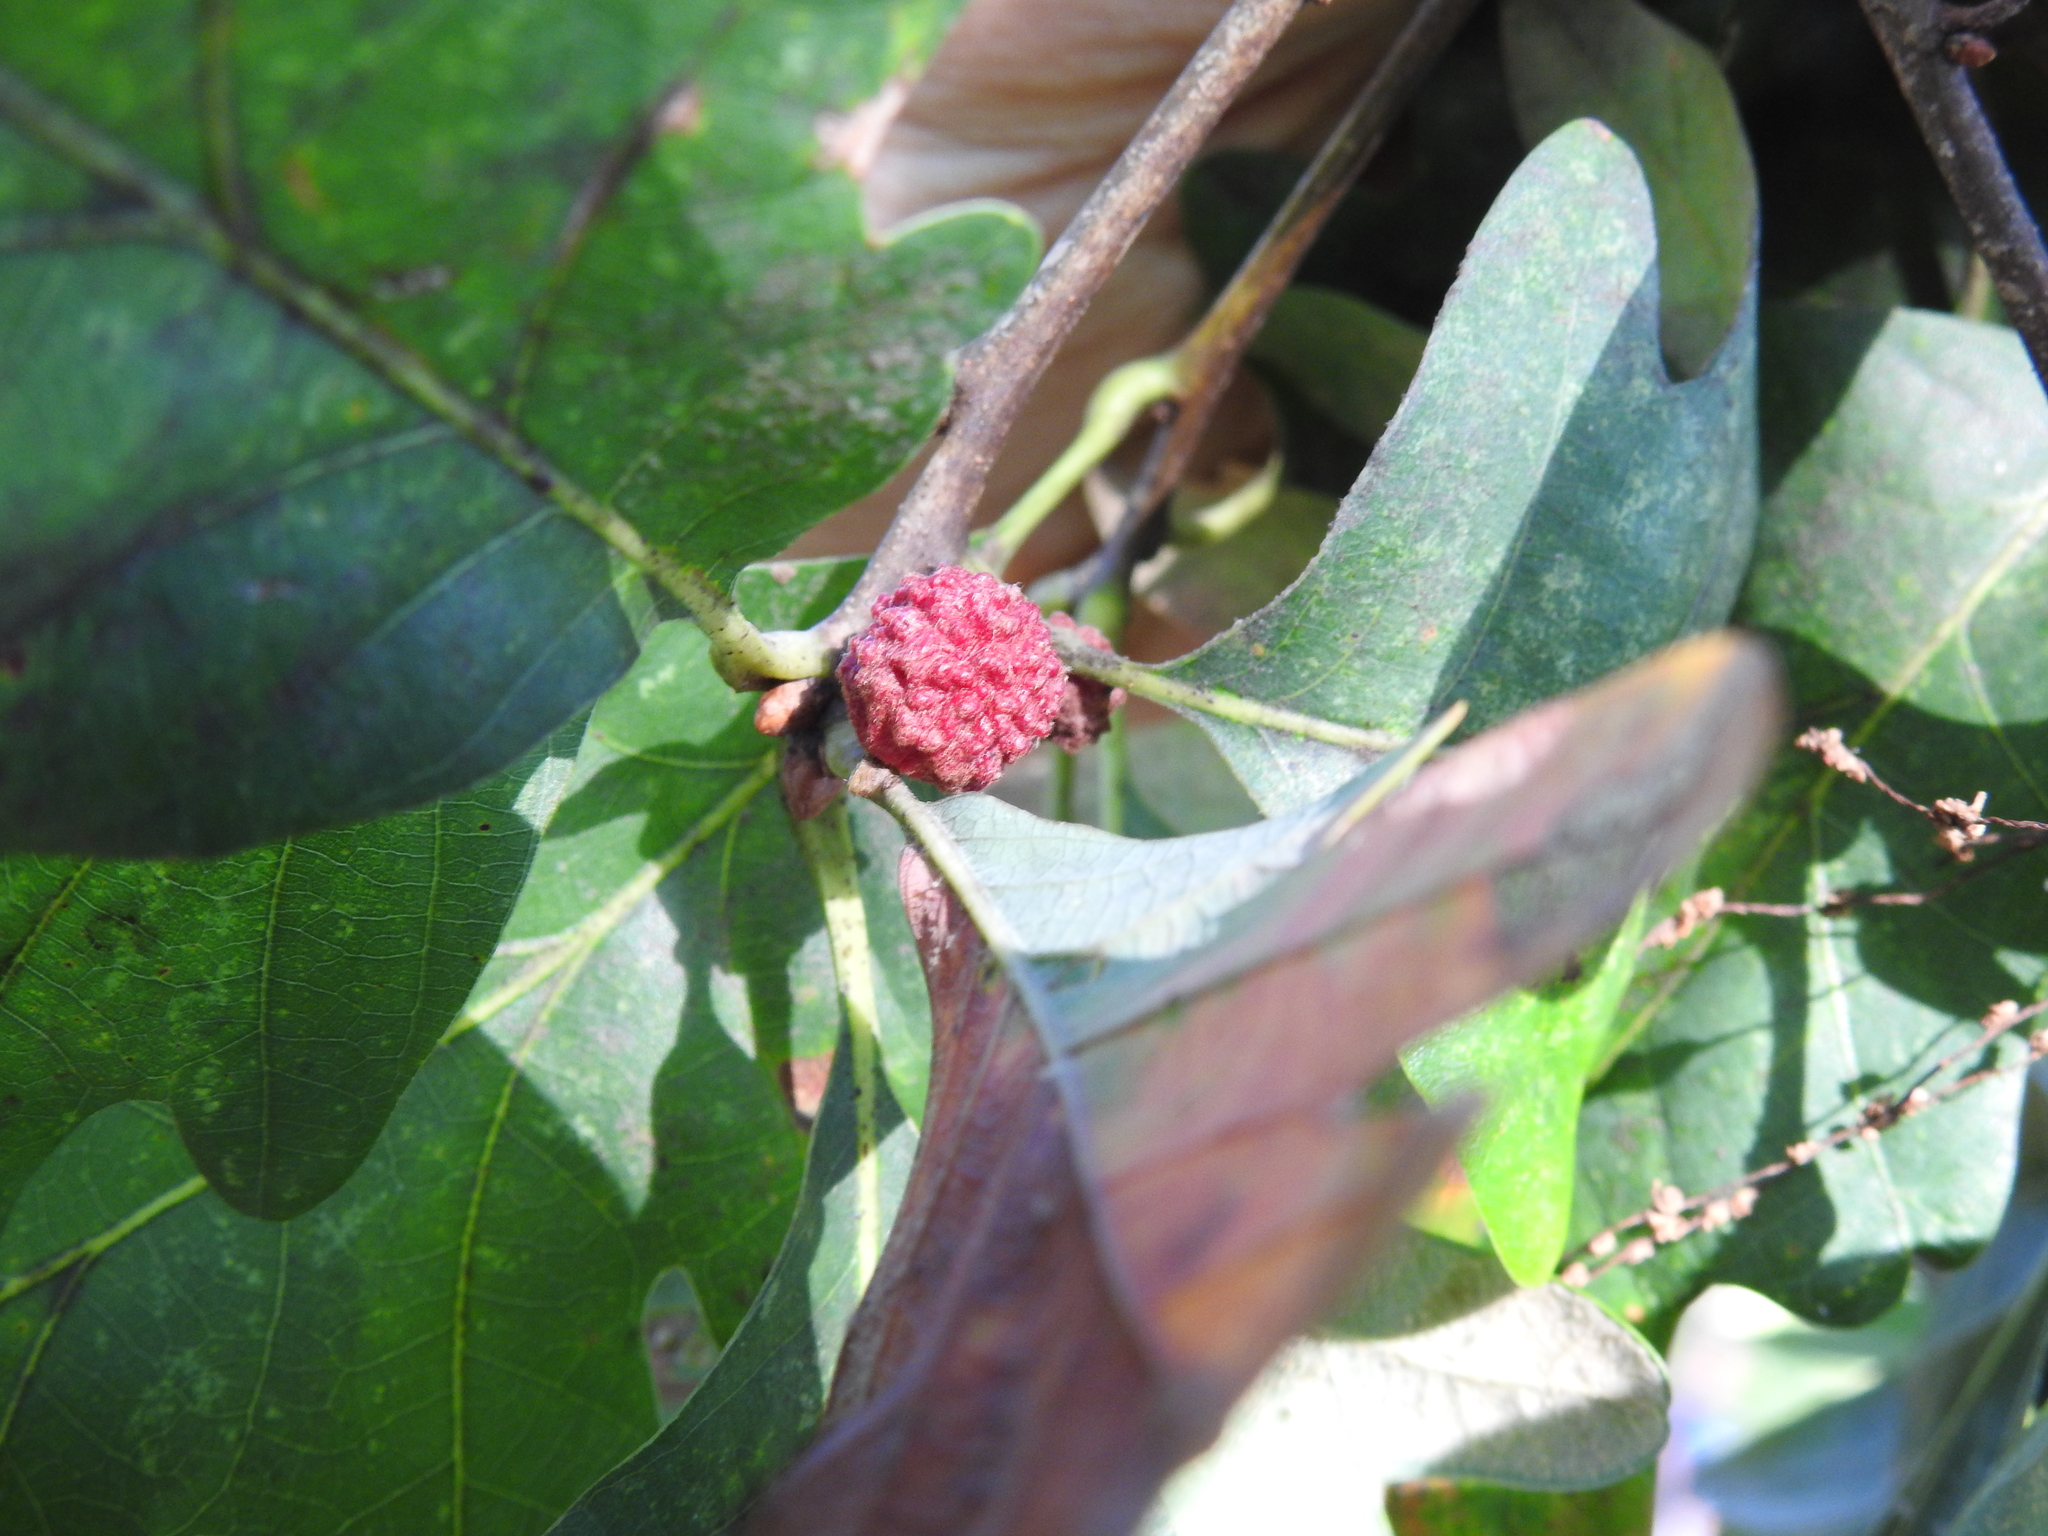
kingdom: Animalia
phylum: Arthropoda
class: Insecta
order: Hymenoptera
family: Cynipidae
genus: Andricus
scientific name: Andricus
